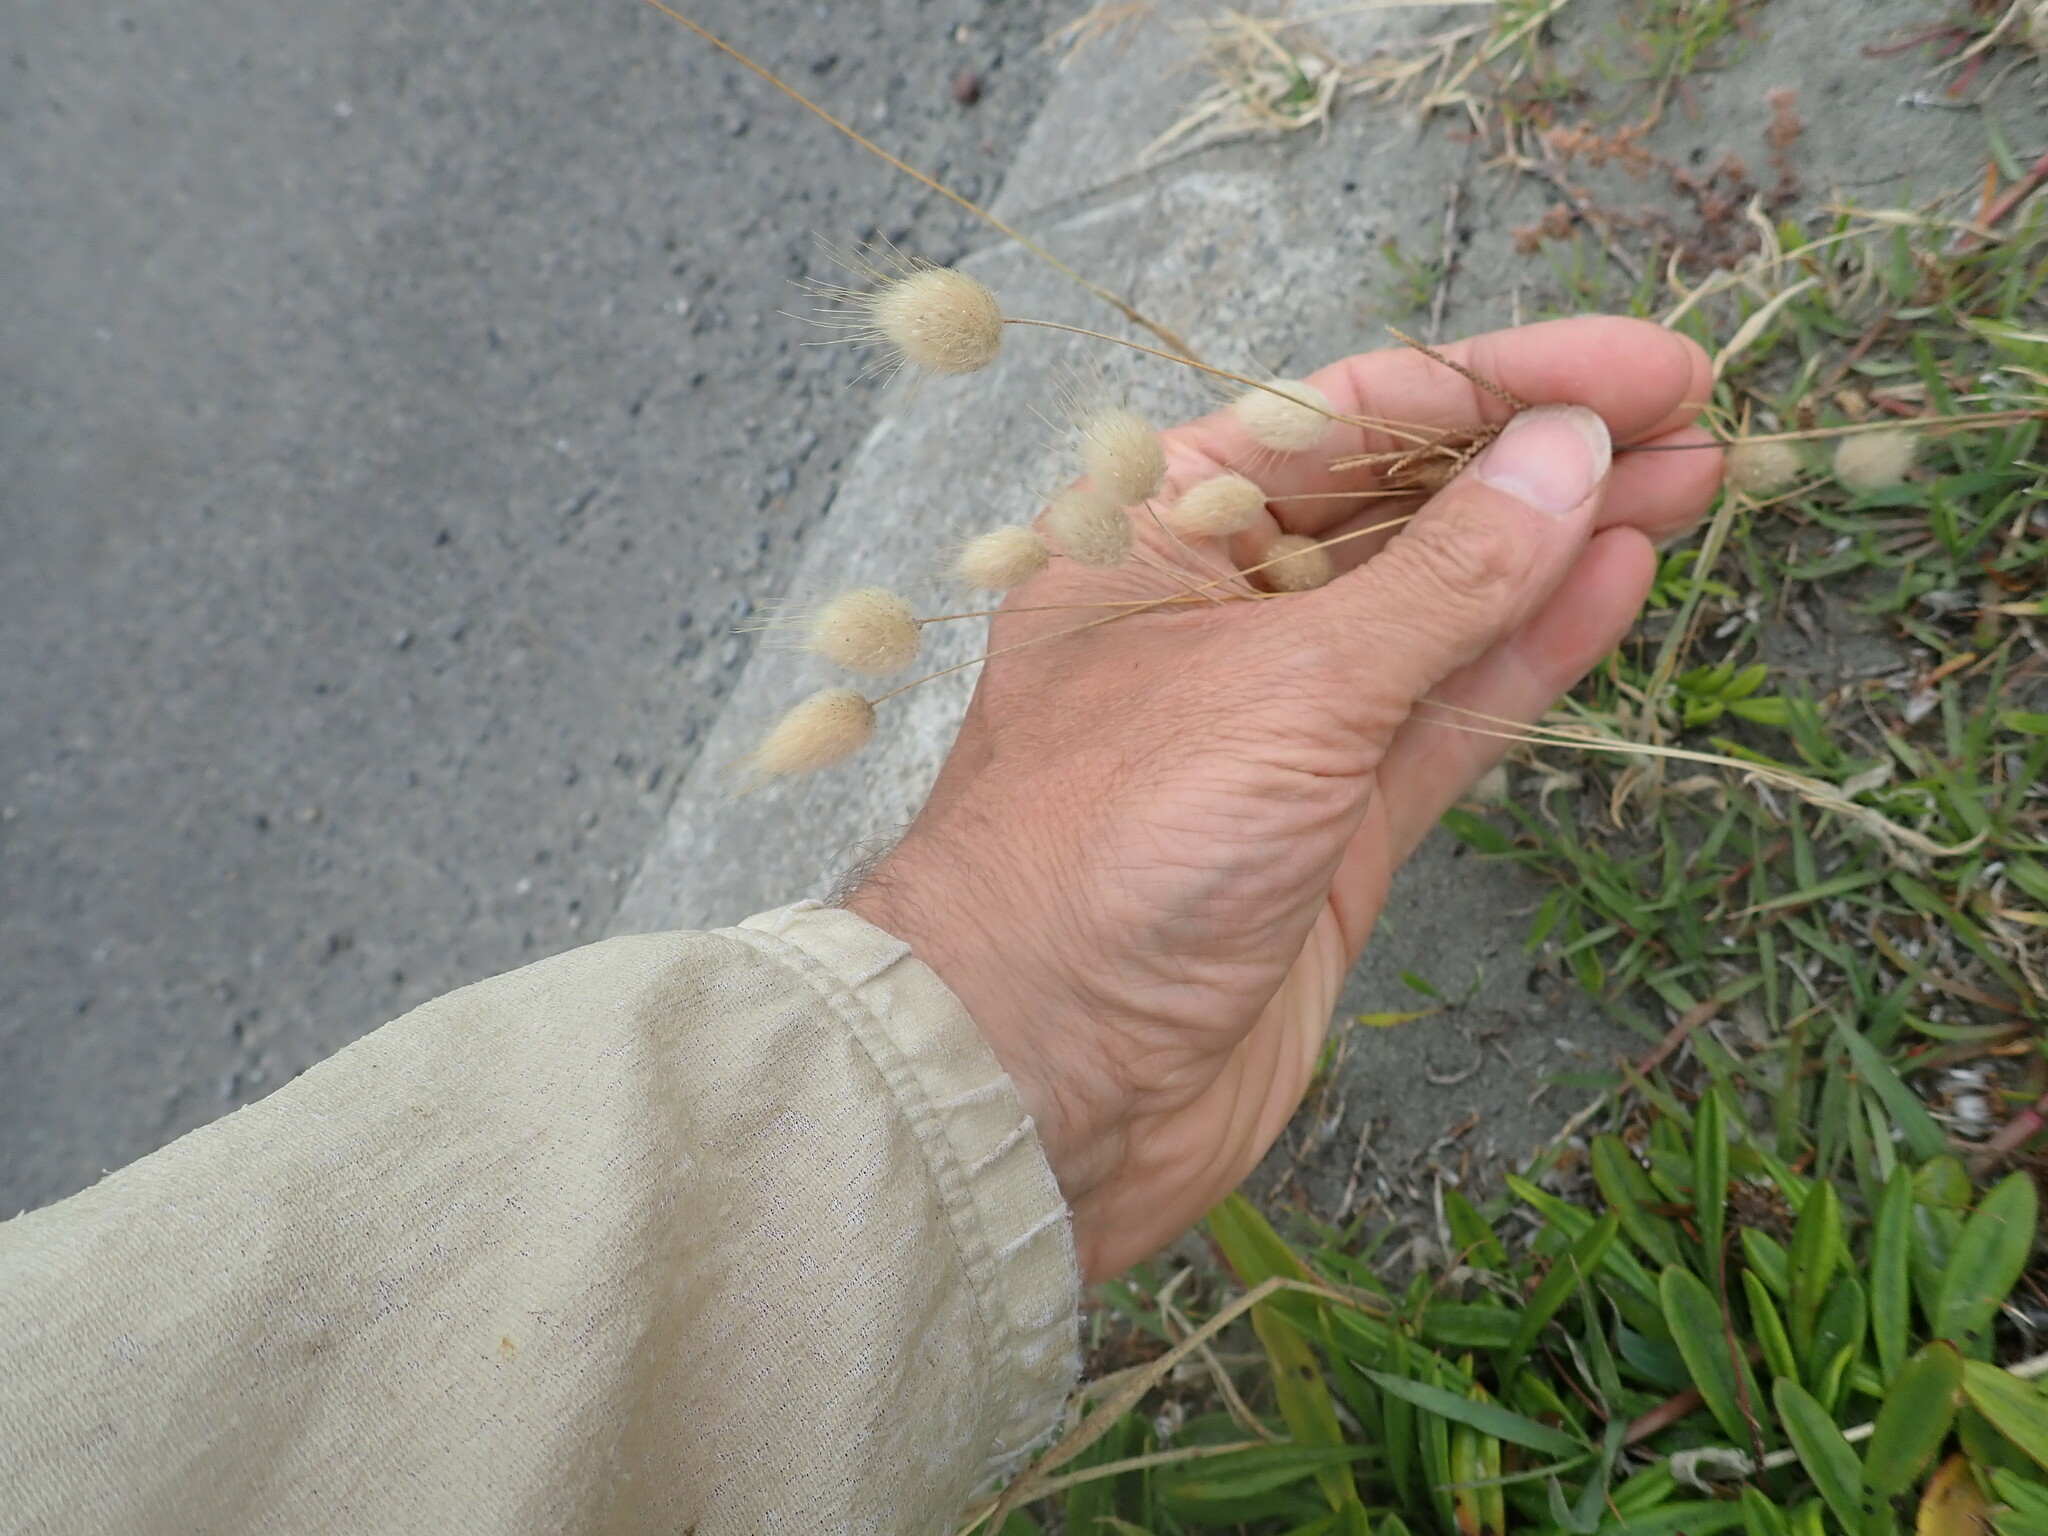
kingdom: Plantae
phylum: Tracheophyta
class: Liliopsida
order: Poales
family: Poaceae
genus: Lagurus
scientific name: Lagurus ovatus
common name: Hare's-tail
